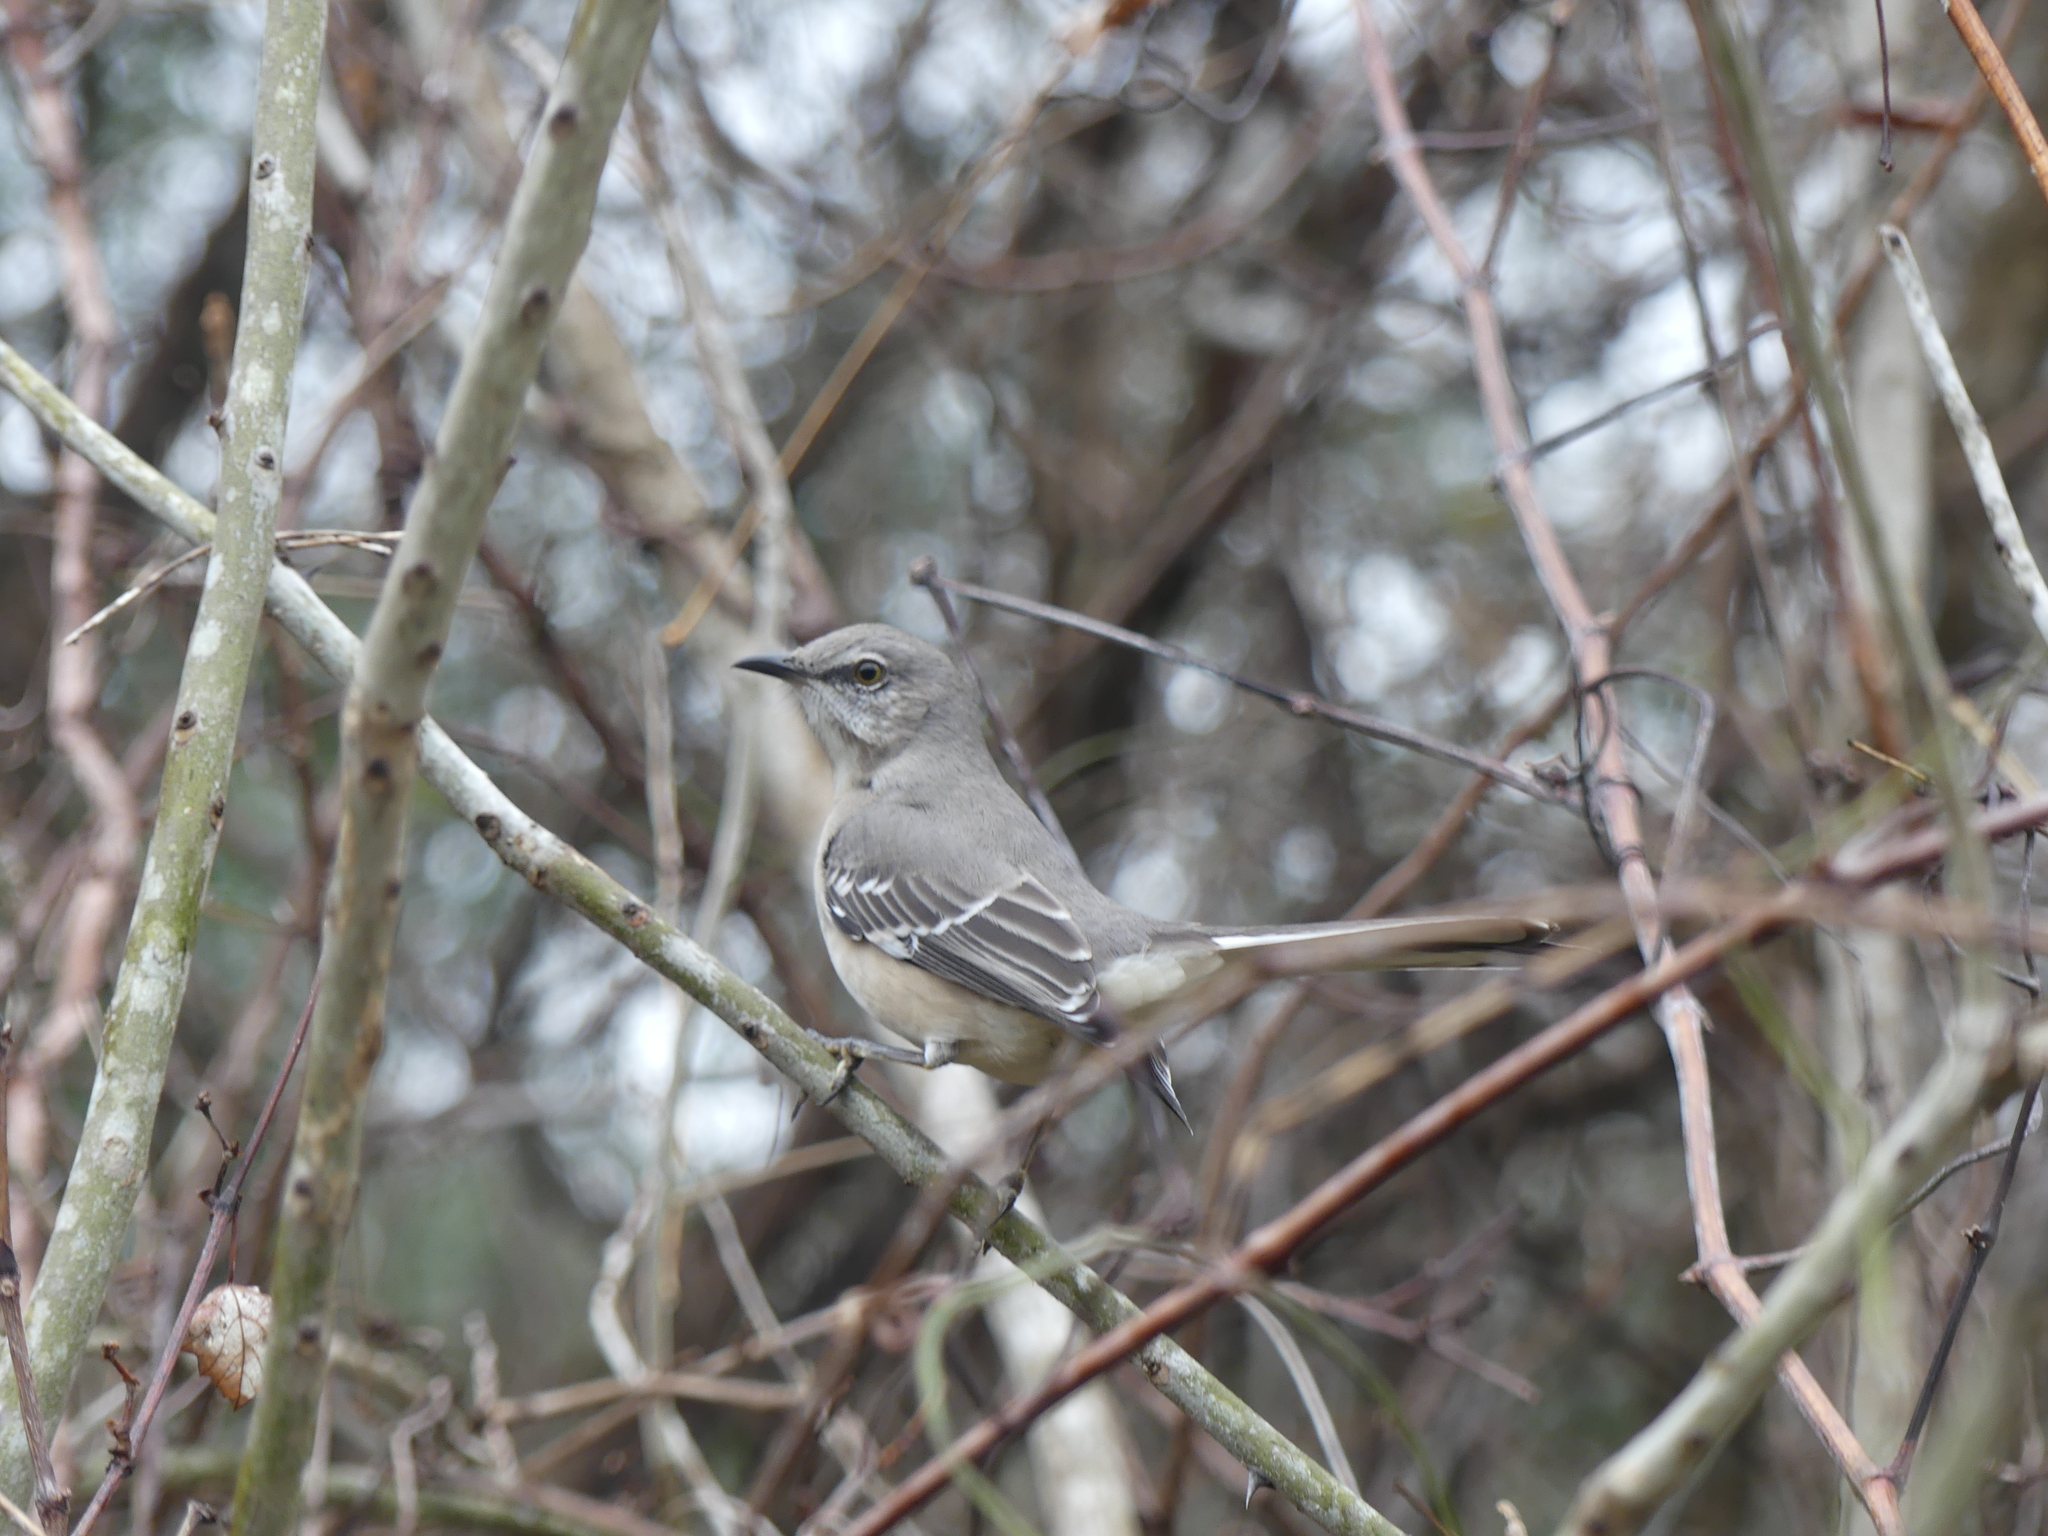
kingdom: Animalia
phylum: Chordata
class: Aves
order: Passeriformes
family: Mimidae
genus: Mimus
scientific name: Mimus polyglottos
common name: Northern mockingbird
